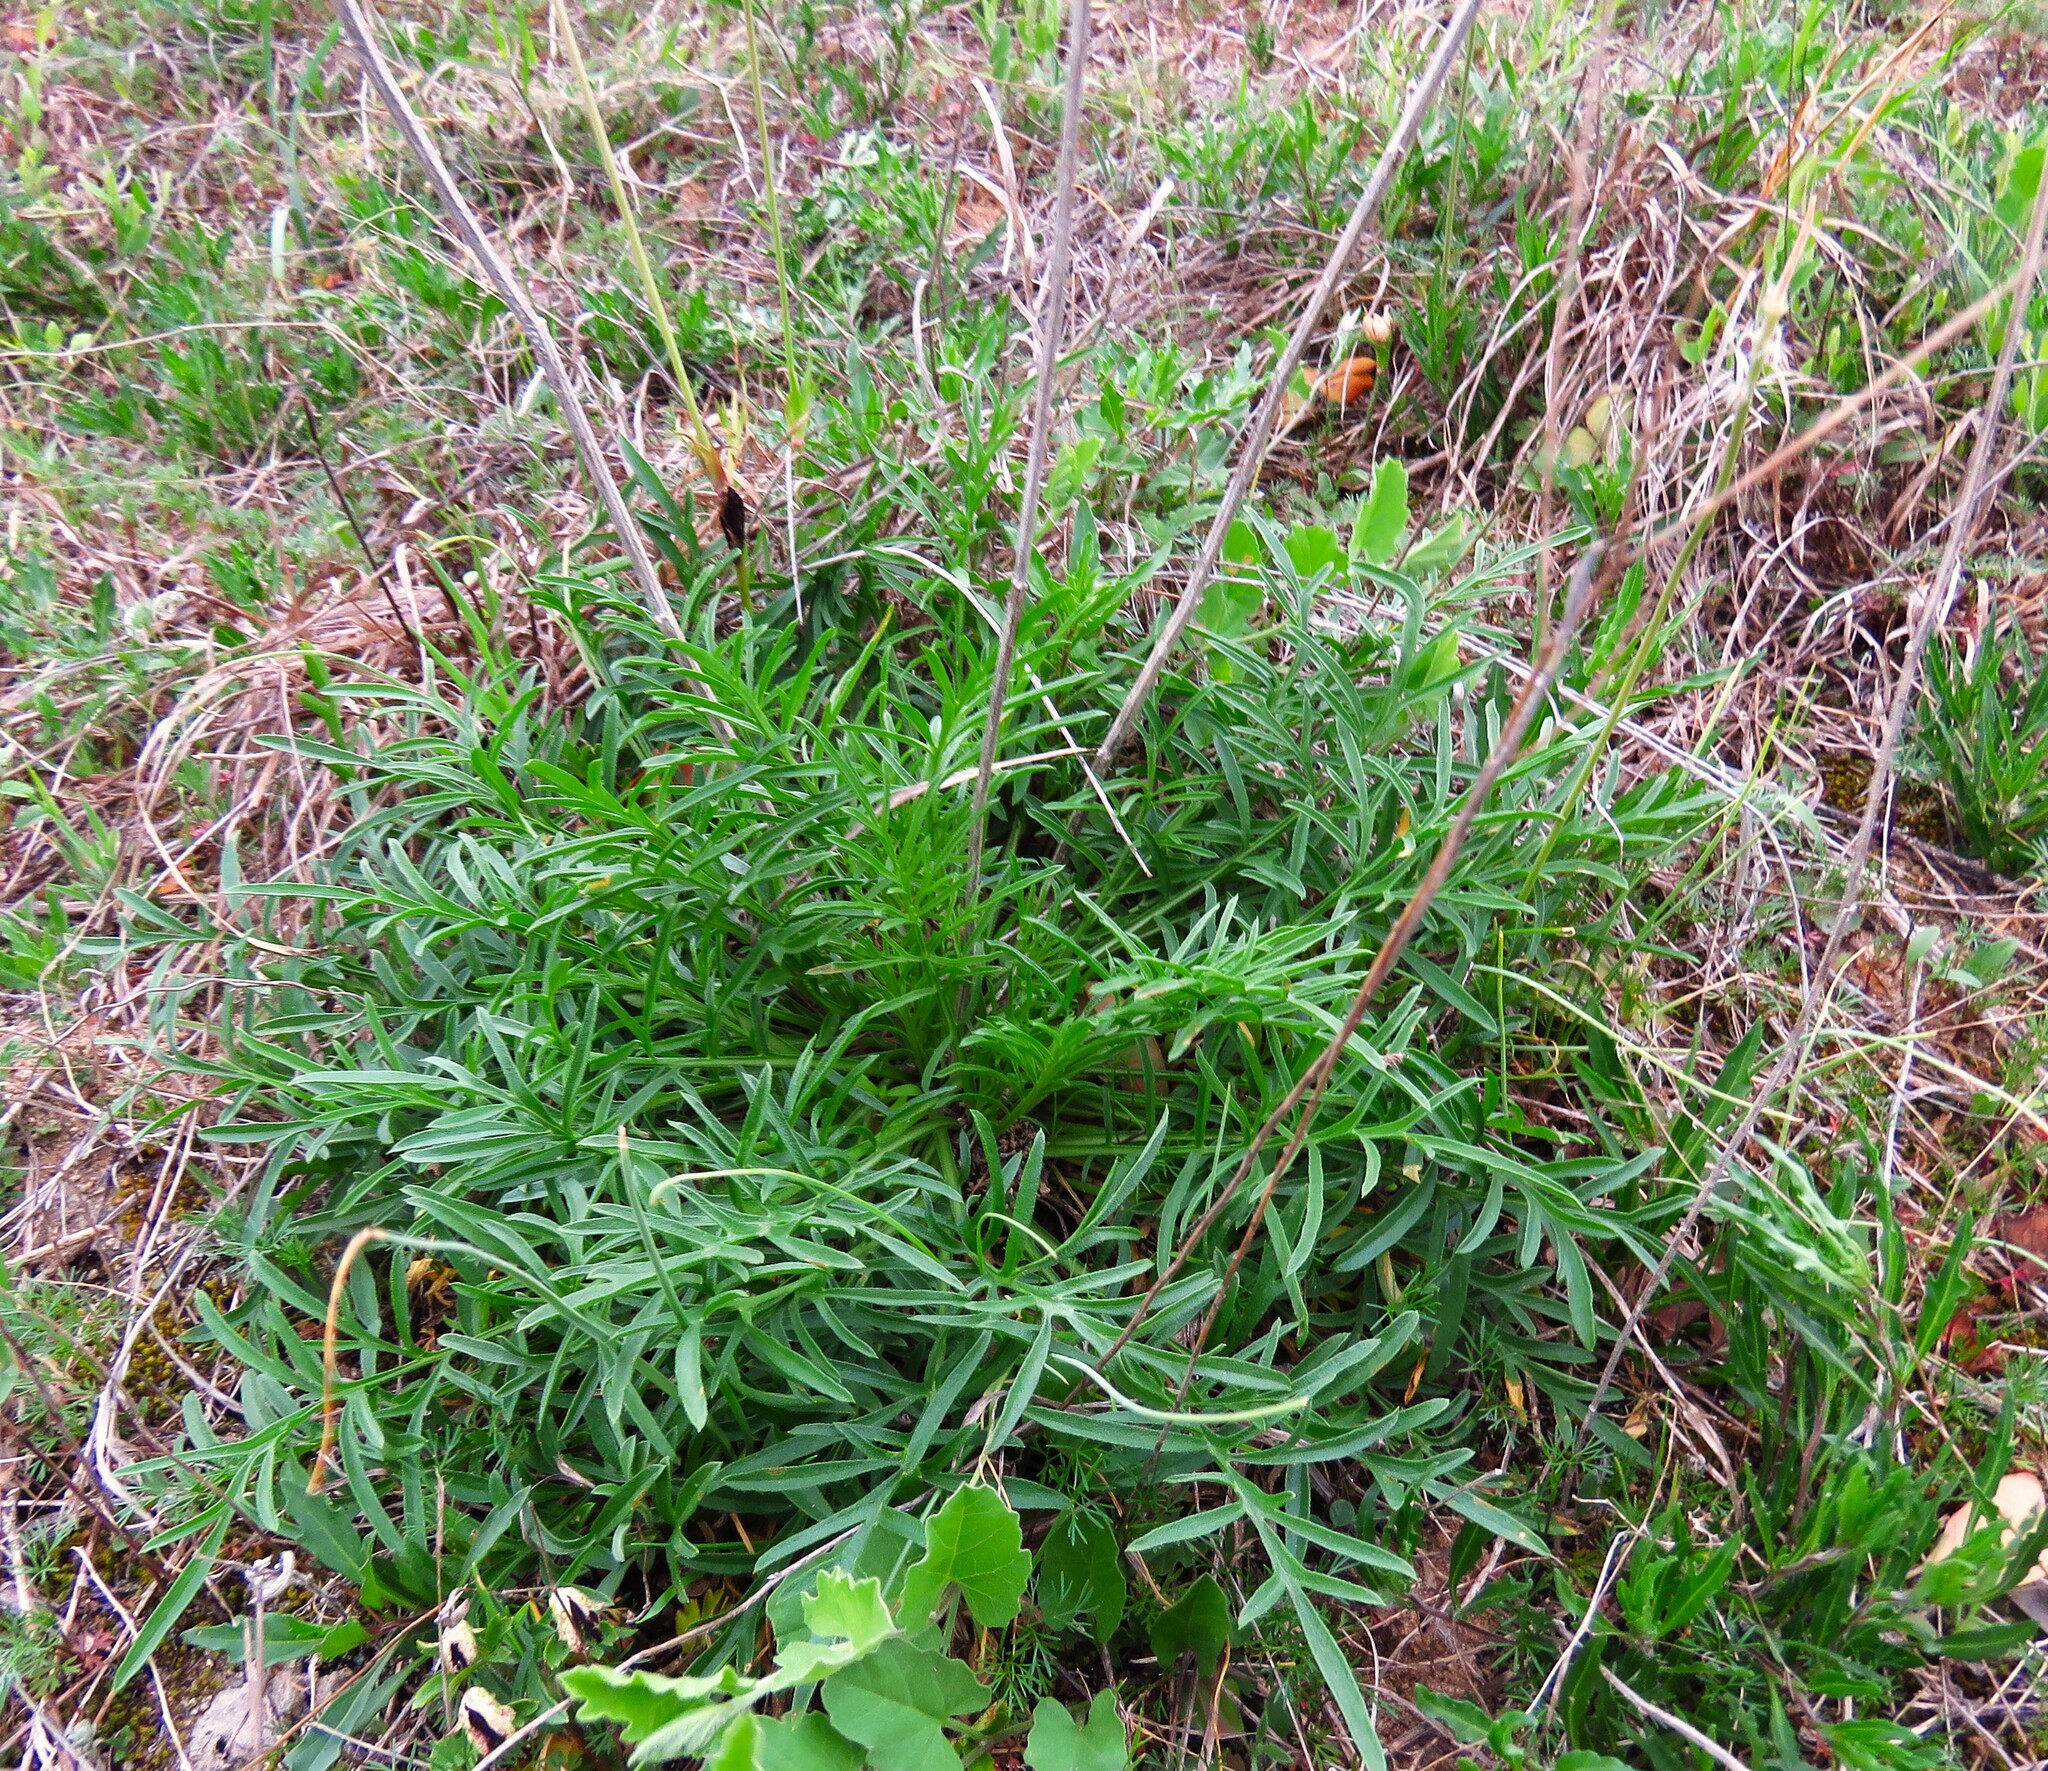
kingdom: Plantae
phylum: Tracheophyta
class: Magnoliopsida
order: Asterales
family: Asteraceae
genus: Ratibida
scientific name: Ratibida columnifera
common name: Prairie coneflower
